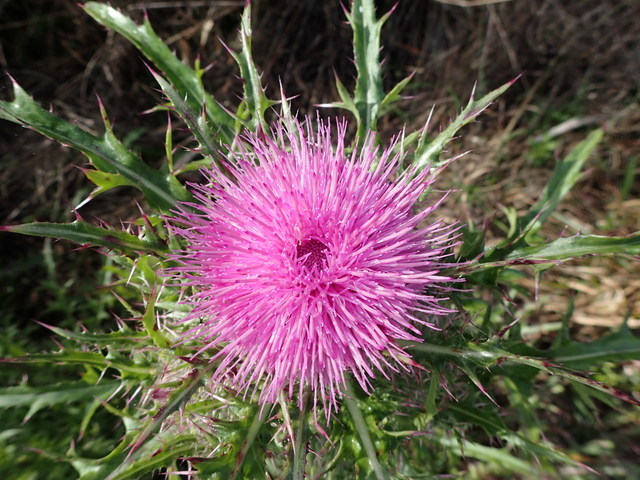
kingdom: Plantae
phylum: Tracheophyta
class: Magnoliopsida
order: Asterales
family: Asteraceae
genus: Cirsium
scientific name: Cirsium horridulum
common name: Bristly thistle
